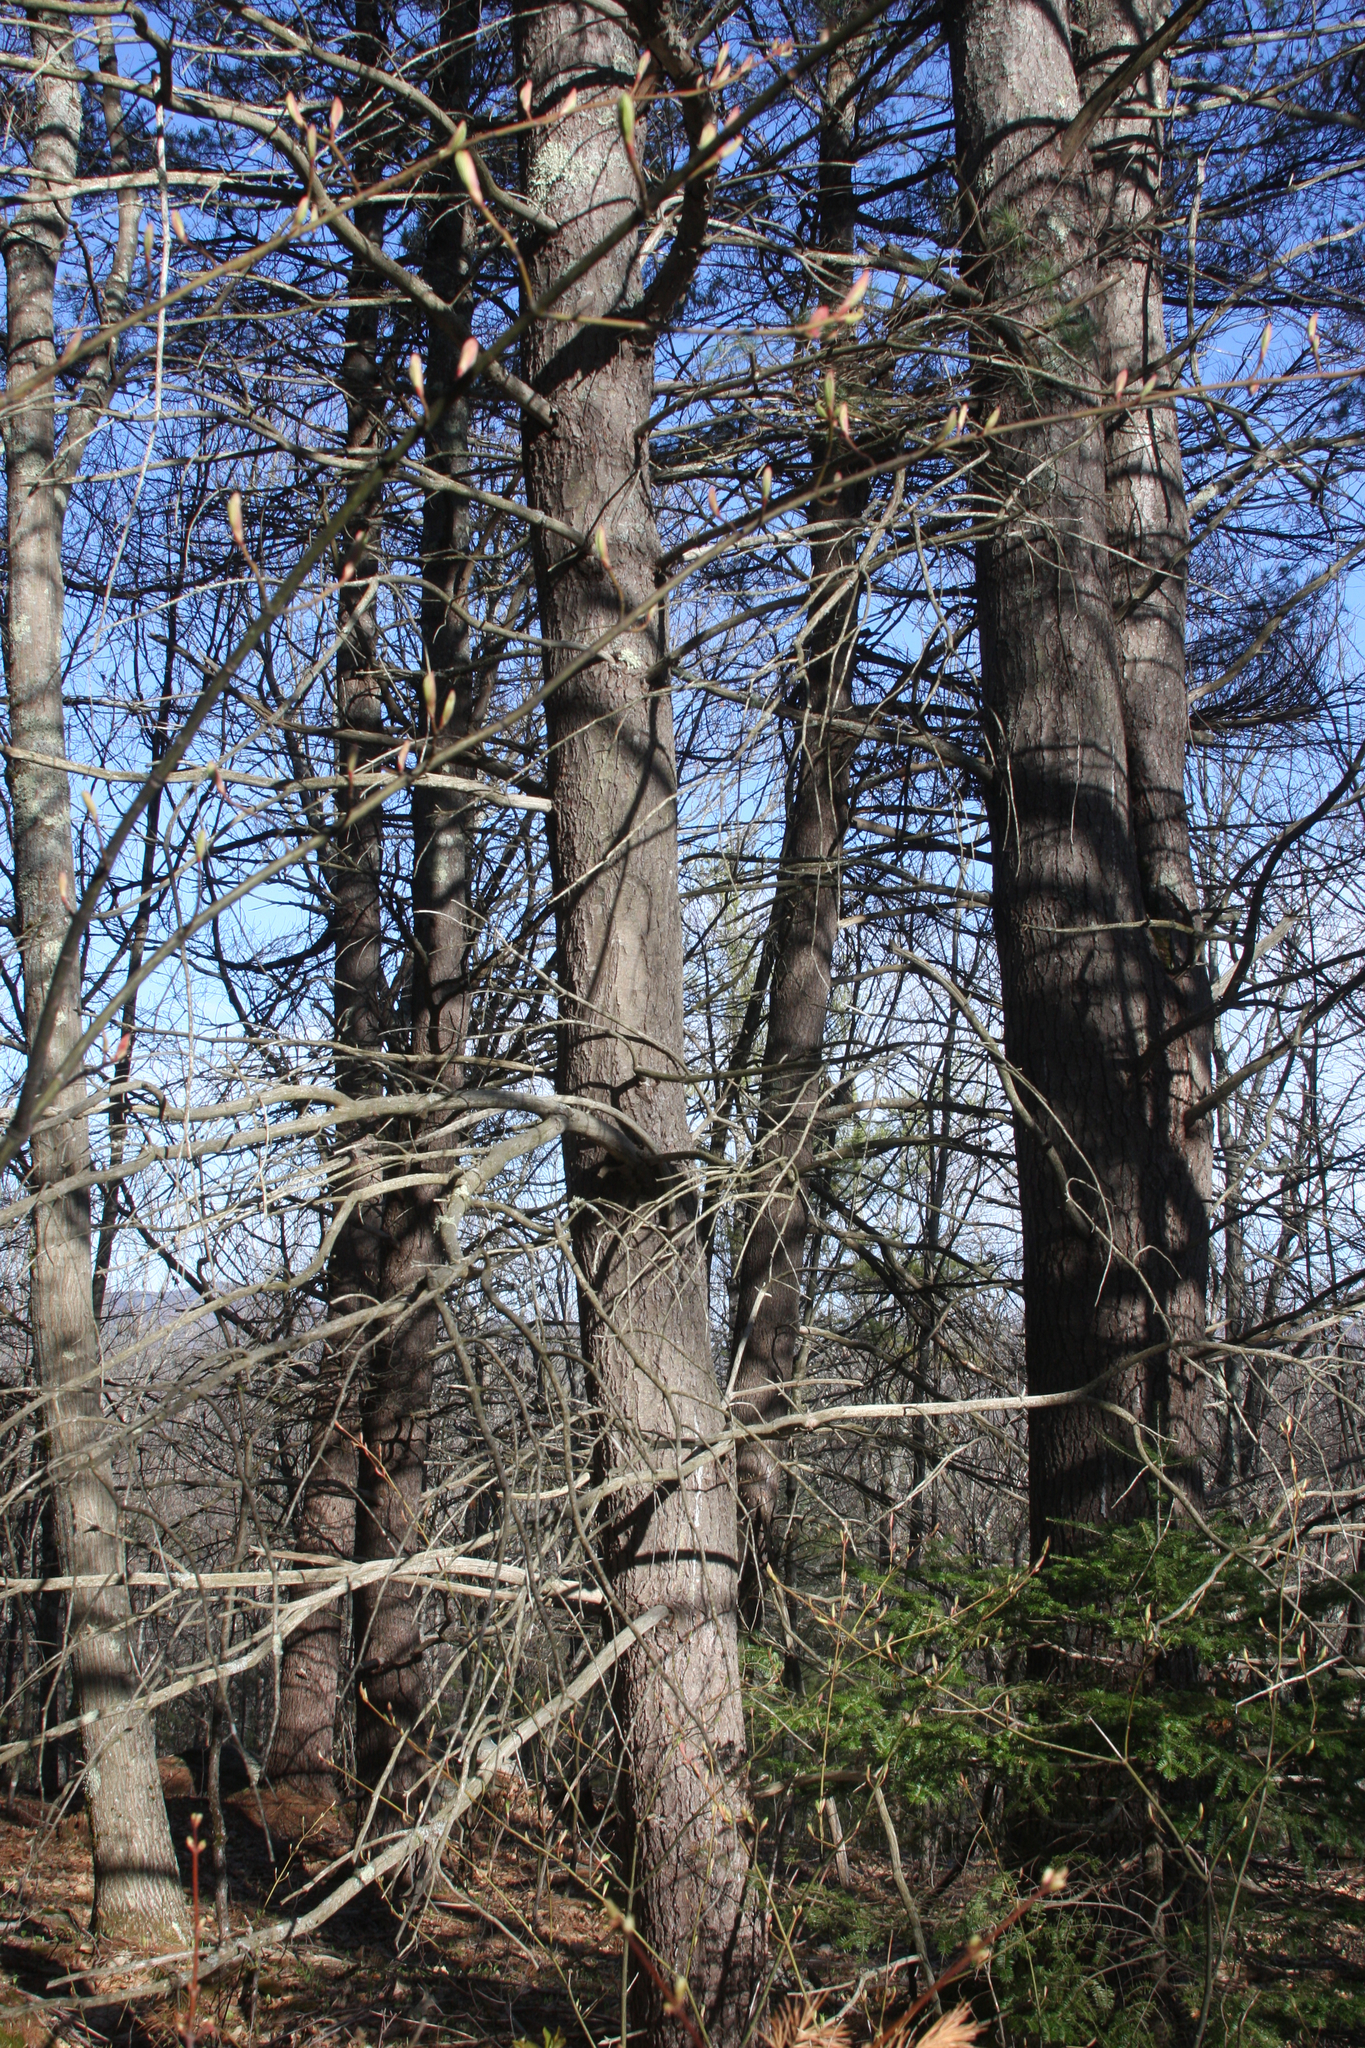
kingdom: Plantae
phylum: Tracheophyta
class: Pinopsida
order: Pinales
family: Pinaceae
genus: Pinus
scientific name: Pinus strobus
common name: Weymouth pine
